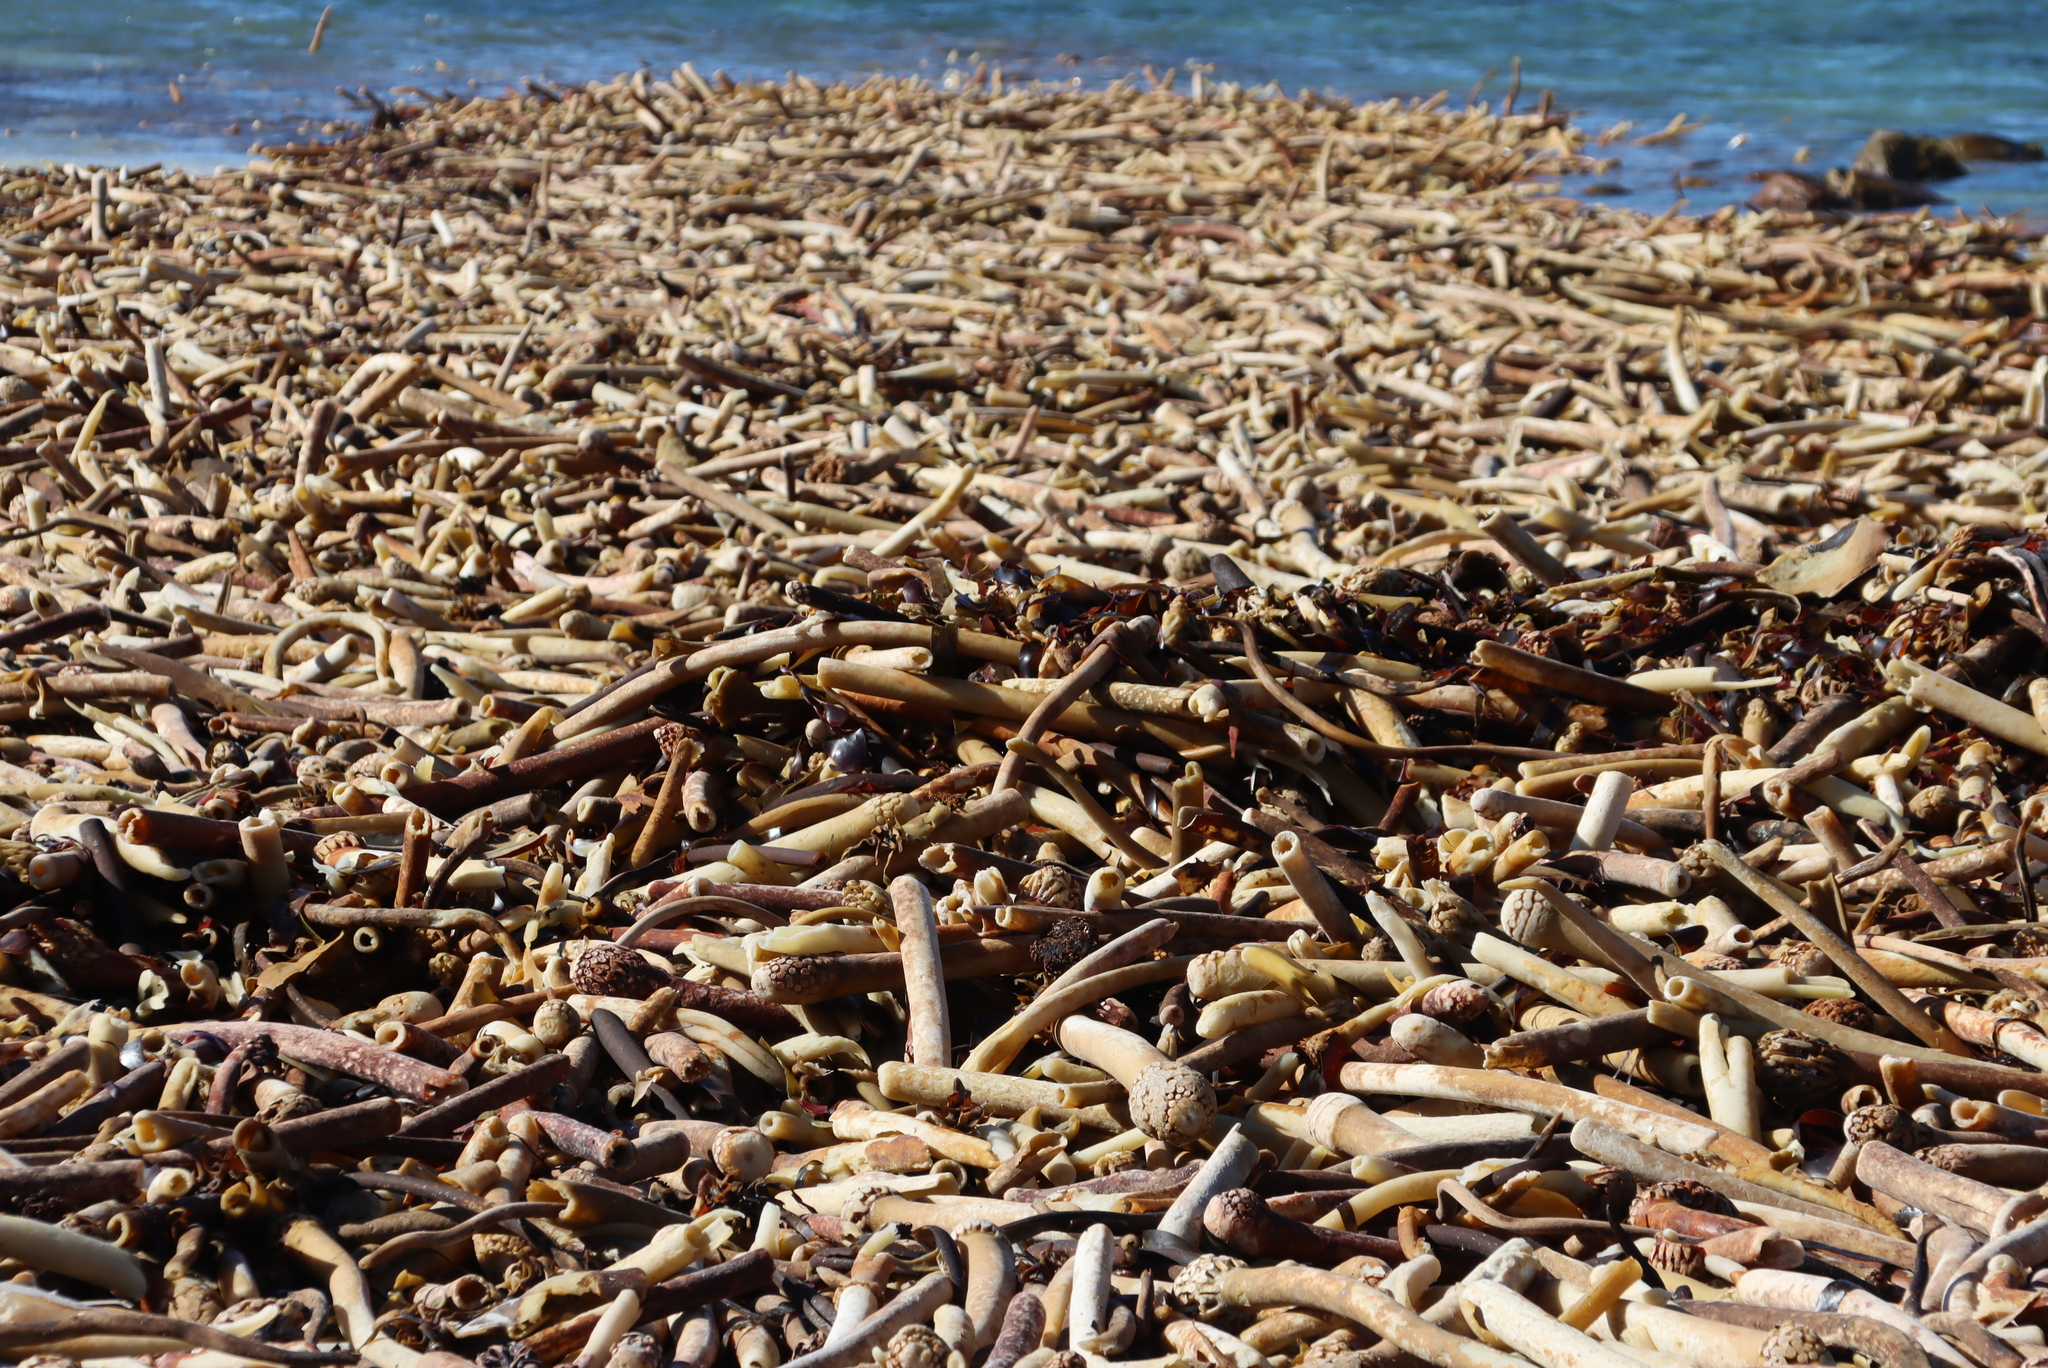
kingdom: Chromista
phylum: Ochrophyta
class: Phaeophyceae
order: Laminariales
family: Lessoniaceae
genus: Ecklonia
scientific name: Ecklonia
